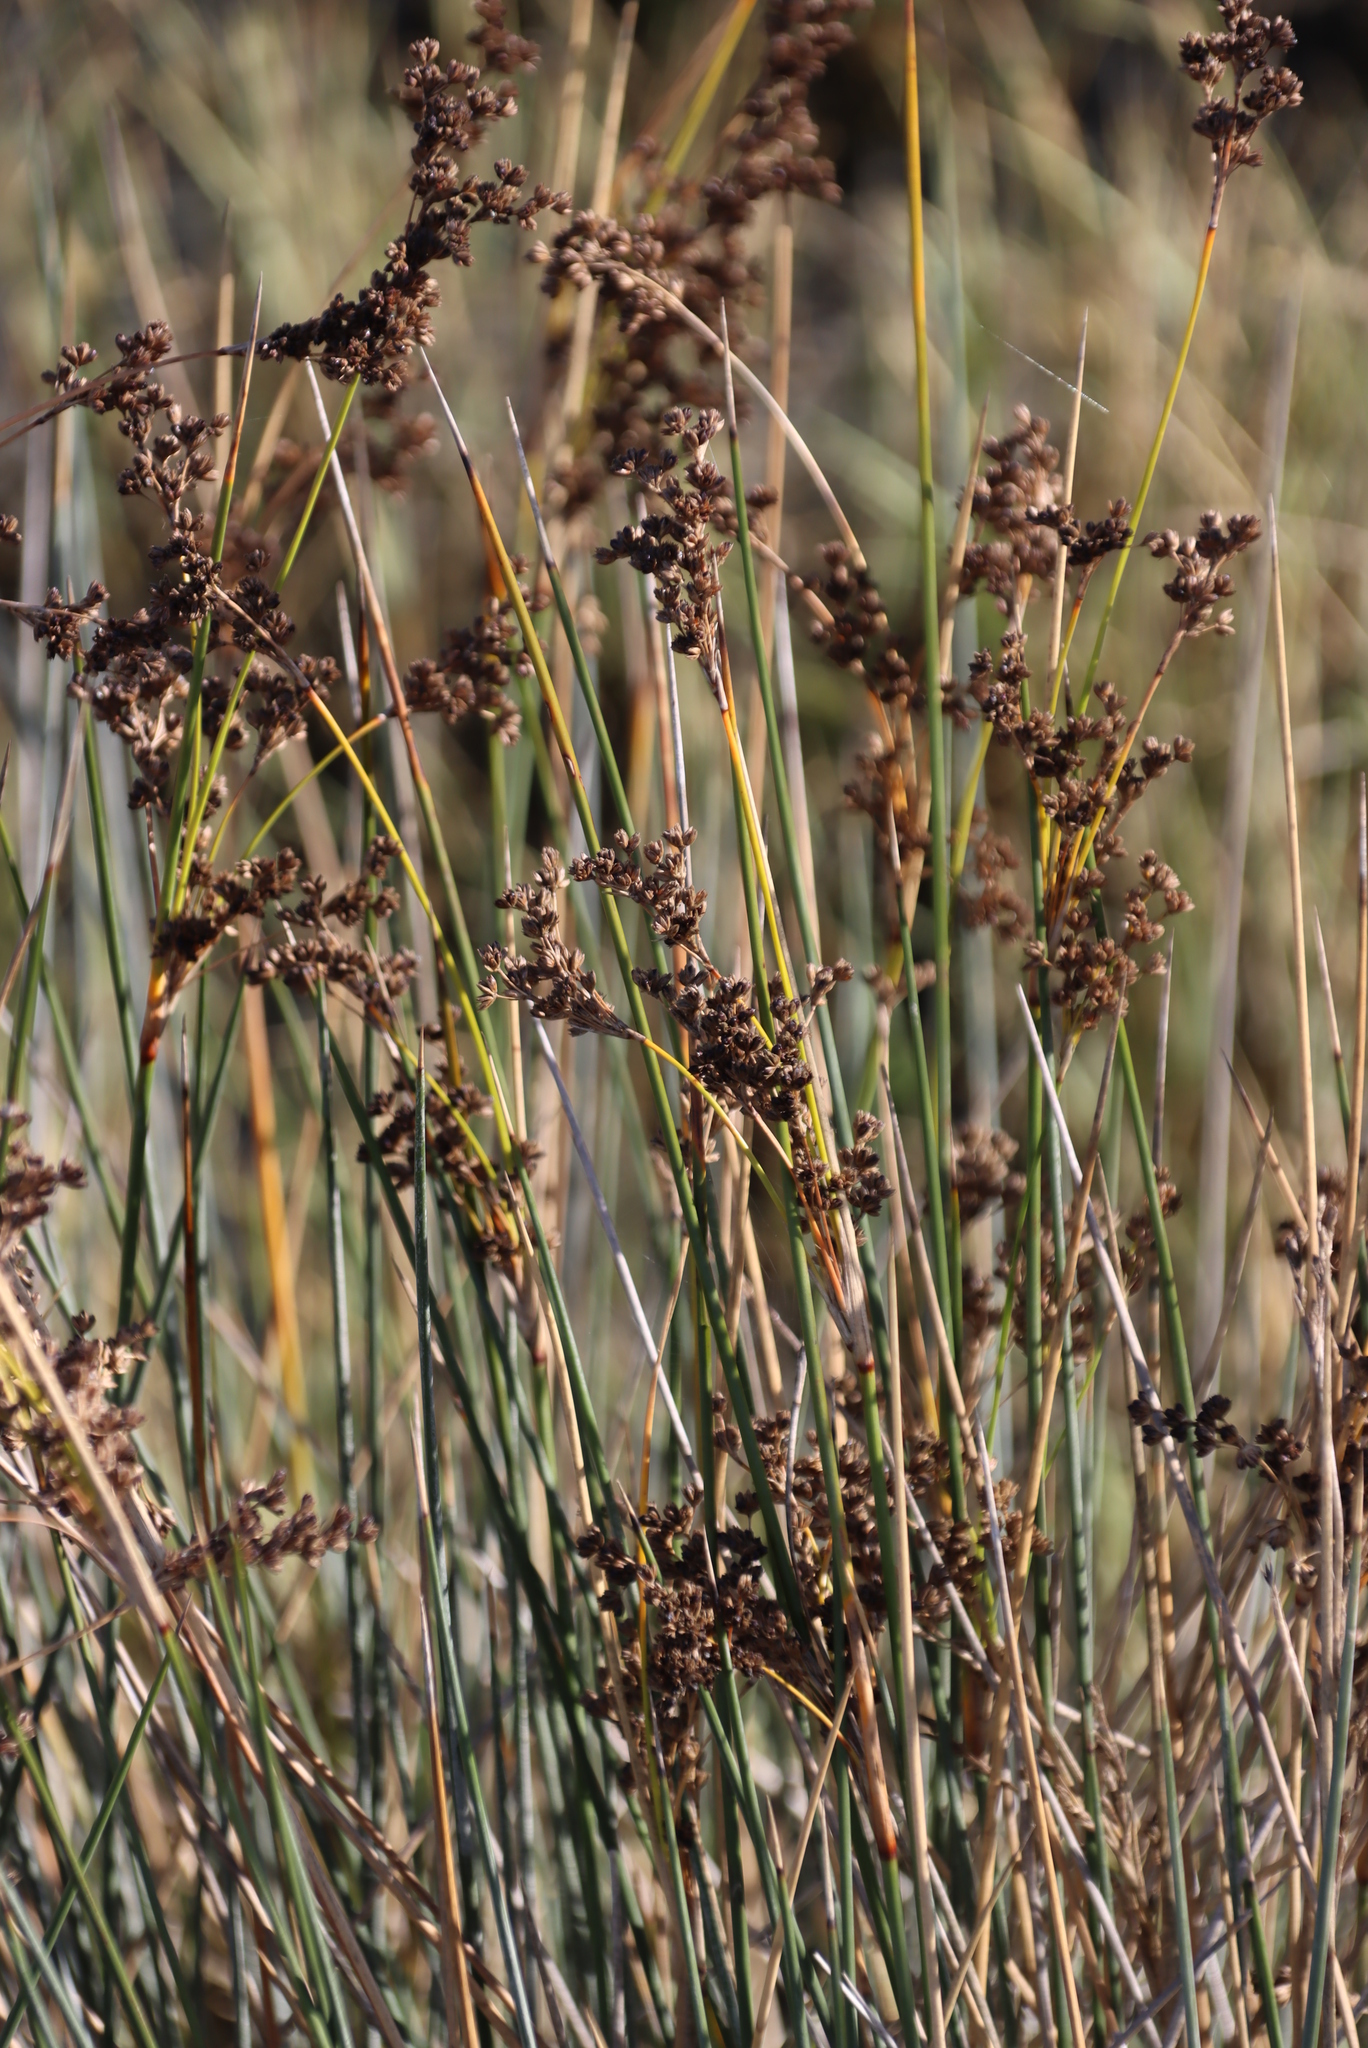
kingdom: Plantae
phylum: Tracheophyta
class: Liliopsida
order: Poales
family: Juncaceae
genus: Juncus
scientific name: Juncus kraussii
